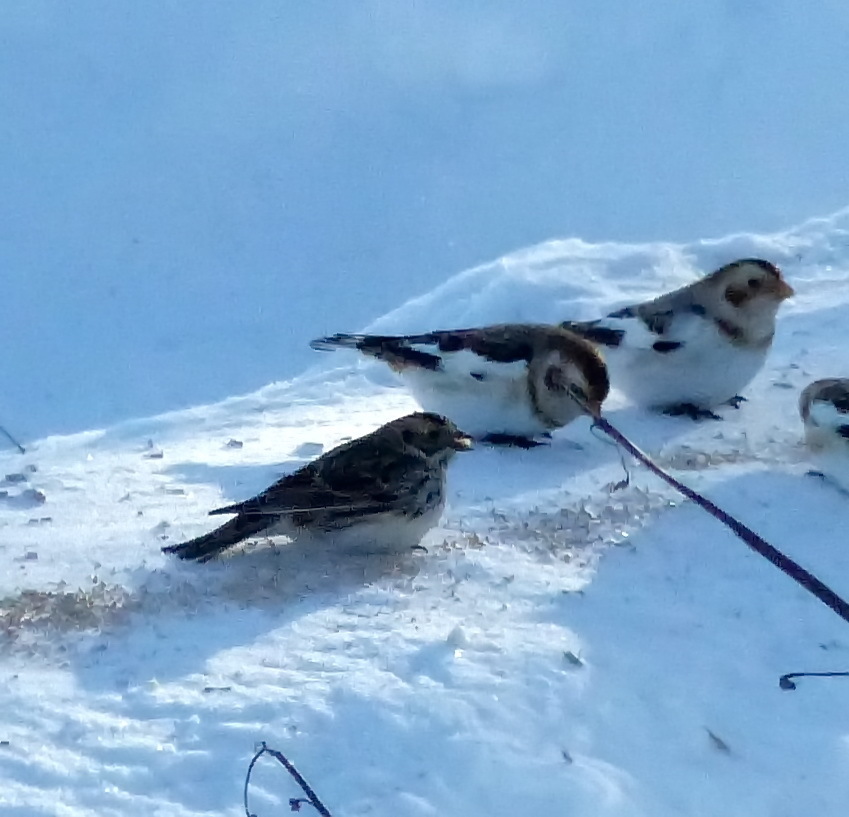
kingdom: Animalia
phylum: Chordata
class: Aves
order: Passeriformes
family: Calcariidae
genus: Calcarius
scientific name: Calcarius lapponicus
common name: Lapland longspur
